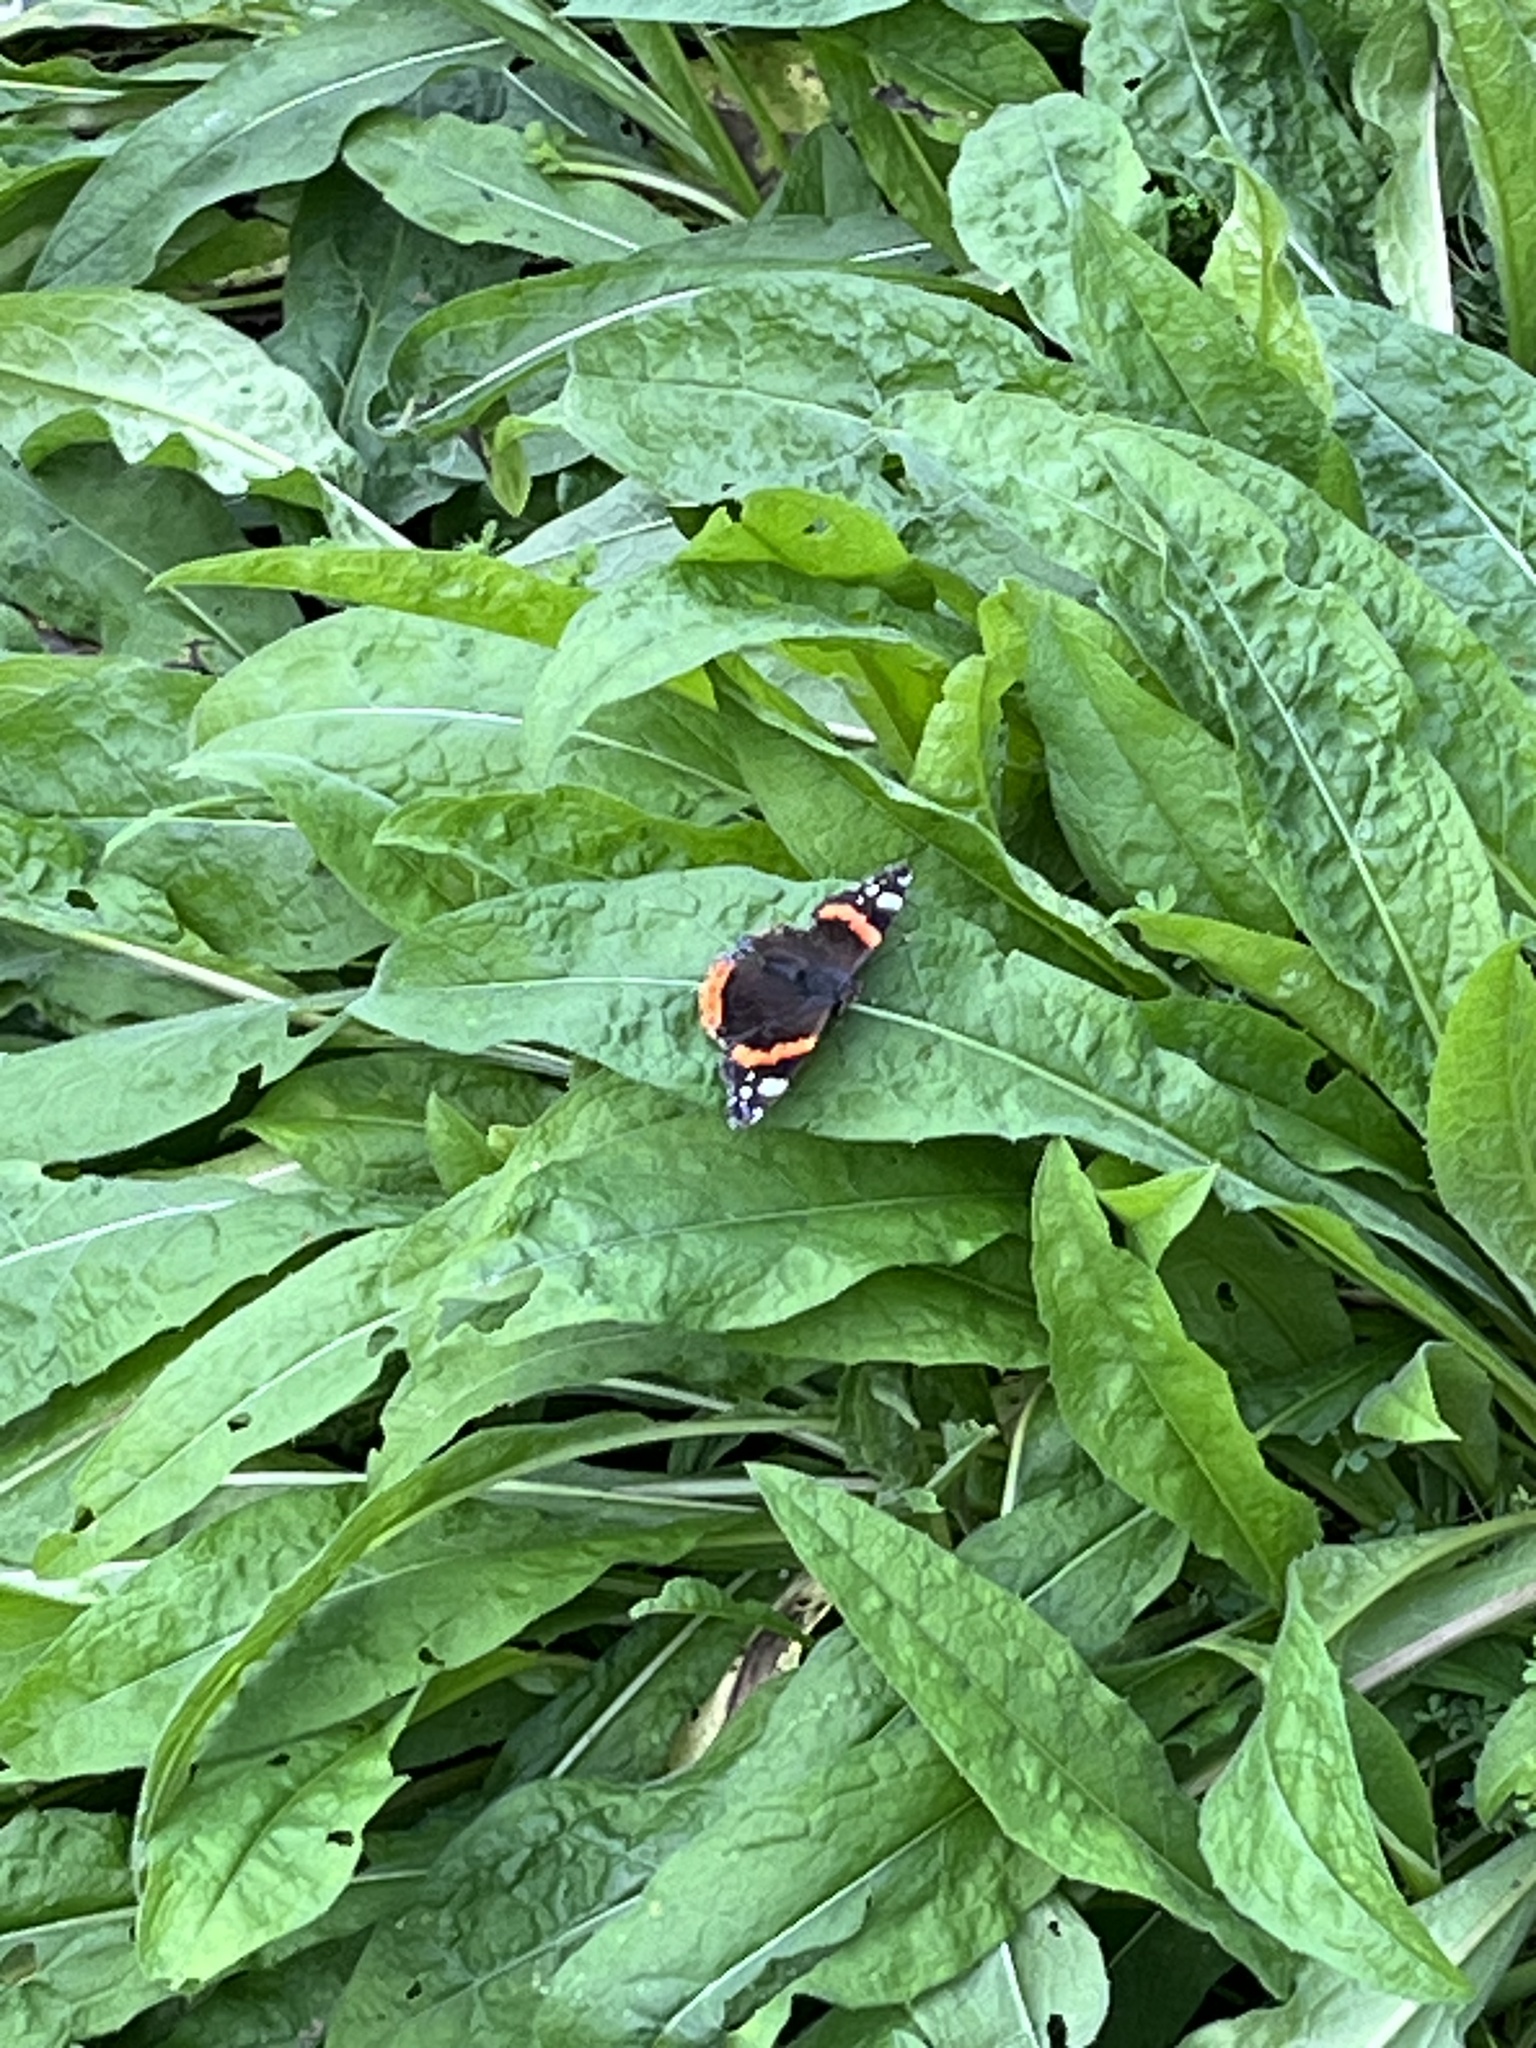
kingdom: Animalia
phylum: Arthropoda
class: Insecta
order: Lepidoptera
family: Nymphalidae
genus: Vanessa
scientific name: Vanessa atalanta
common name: Red admiral
